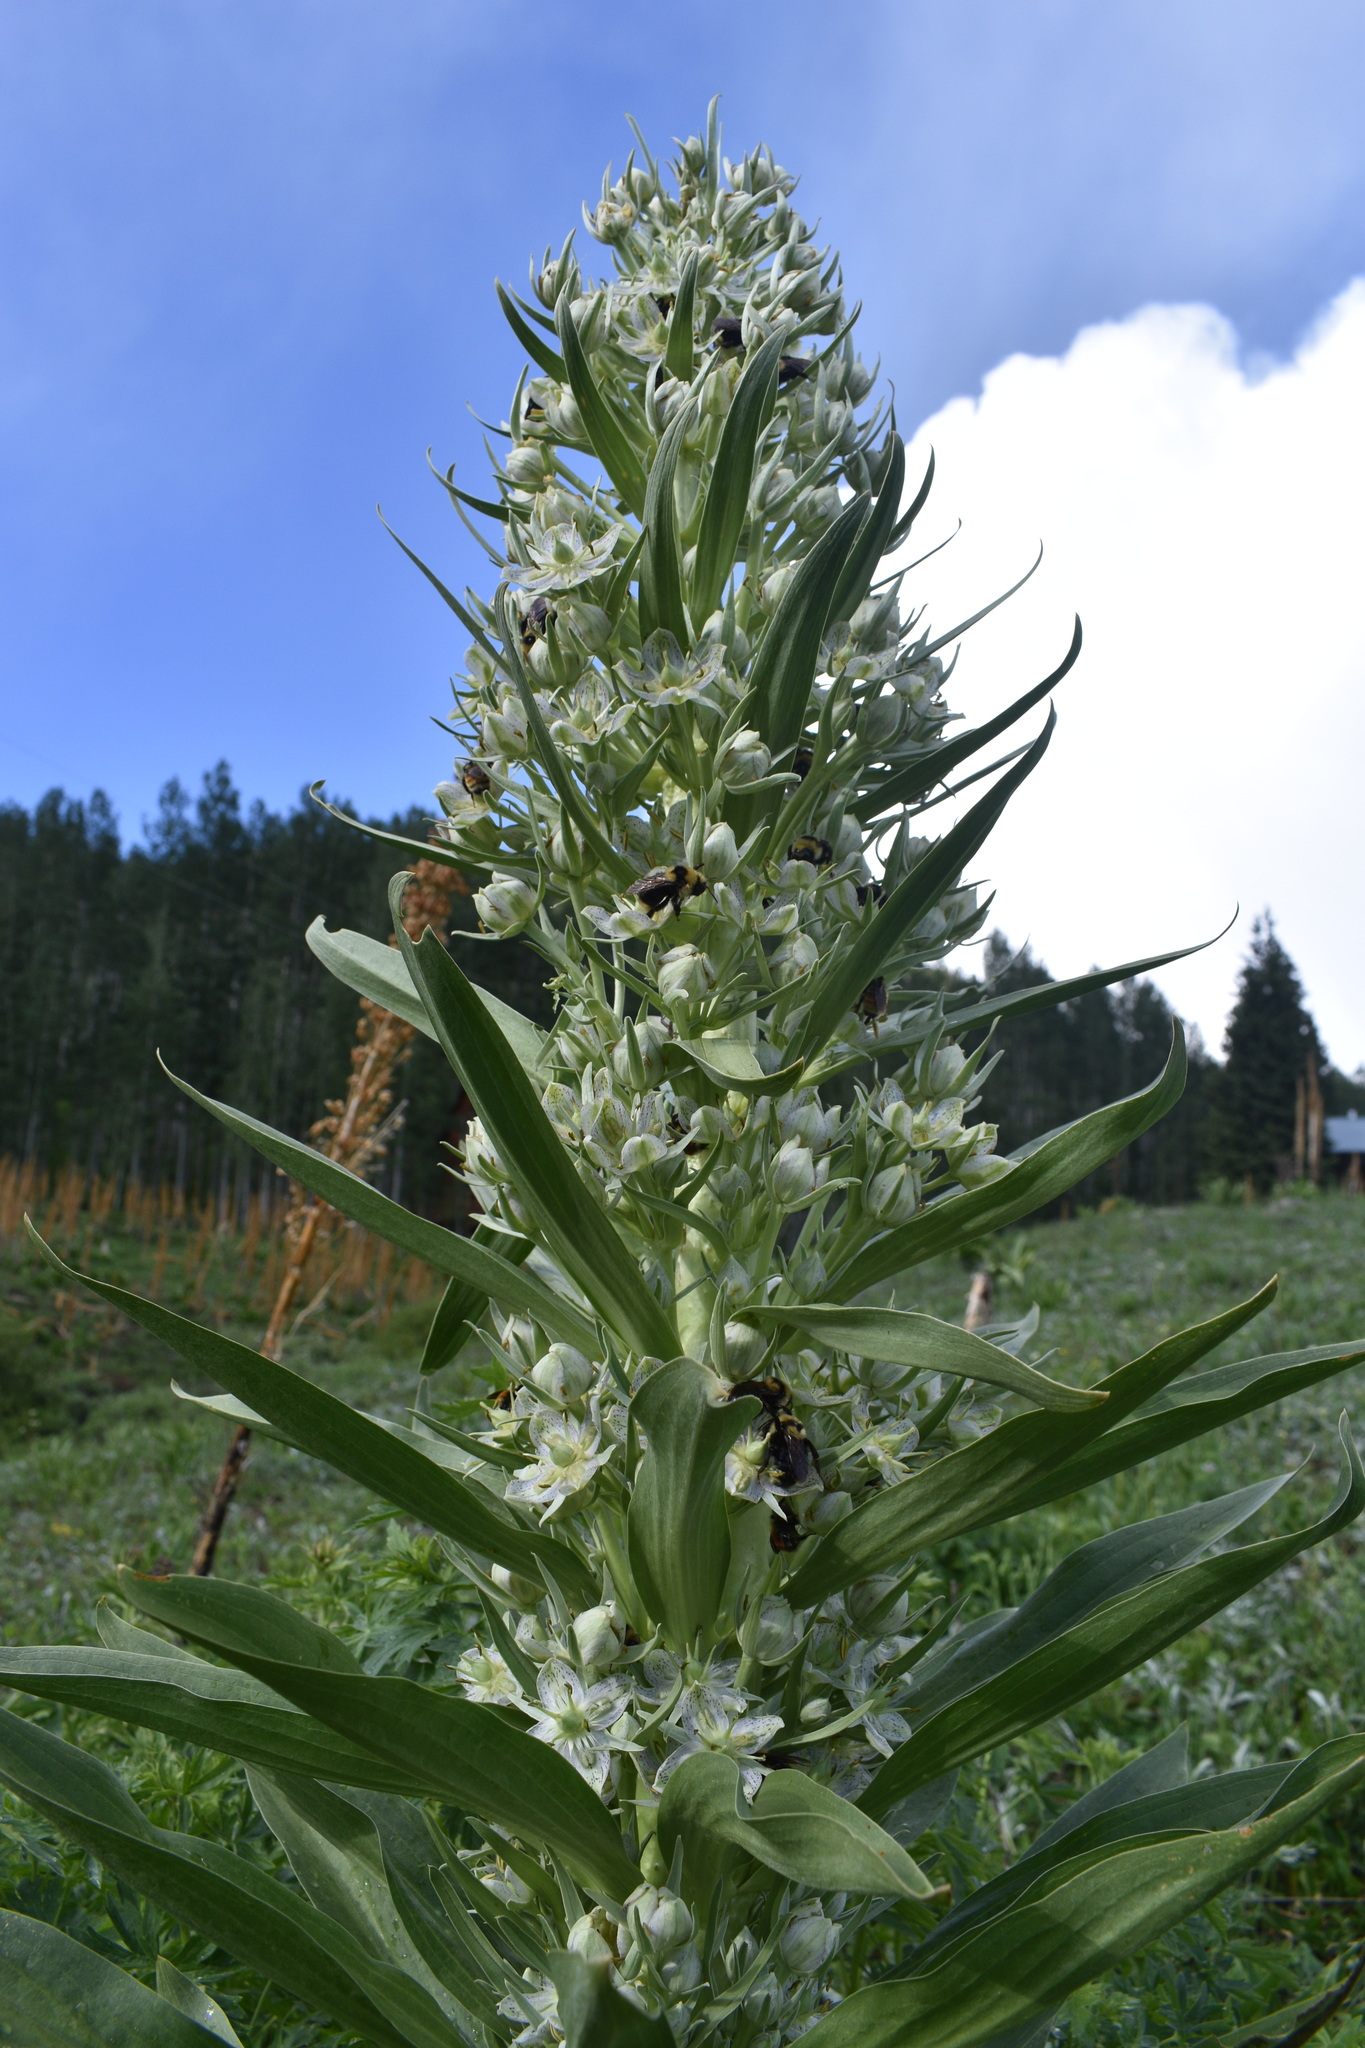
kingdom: Plantae
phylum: Tracheophyta
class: Magnoliopsida
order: Gentianales
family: Gentianaceae
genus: Frasera
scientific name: Frasera speciosa
